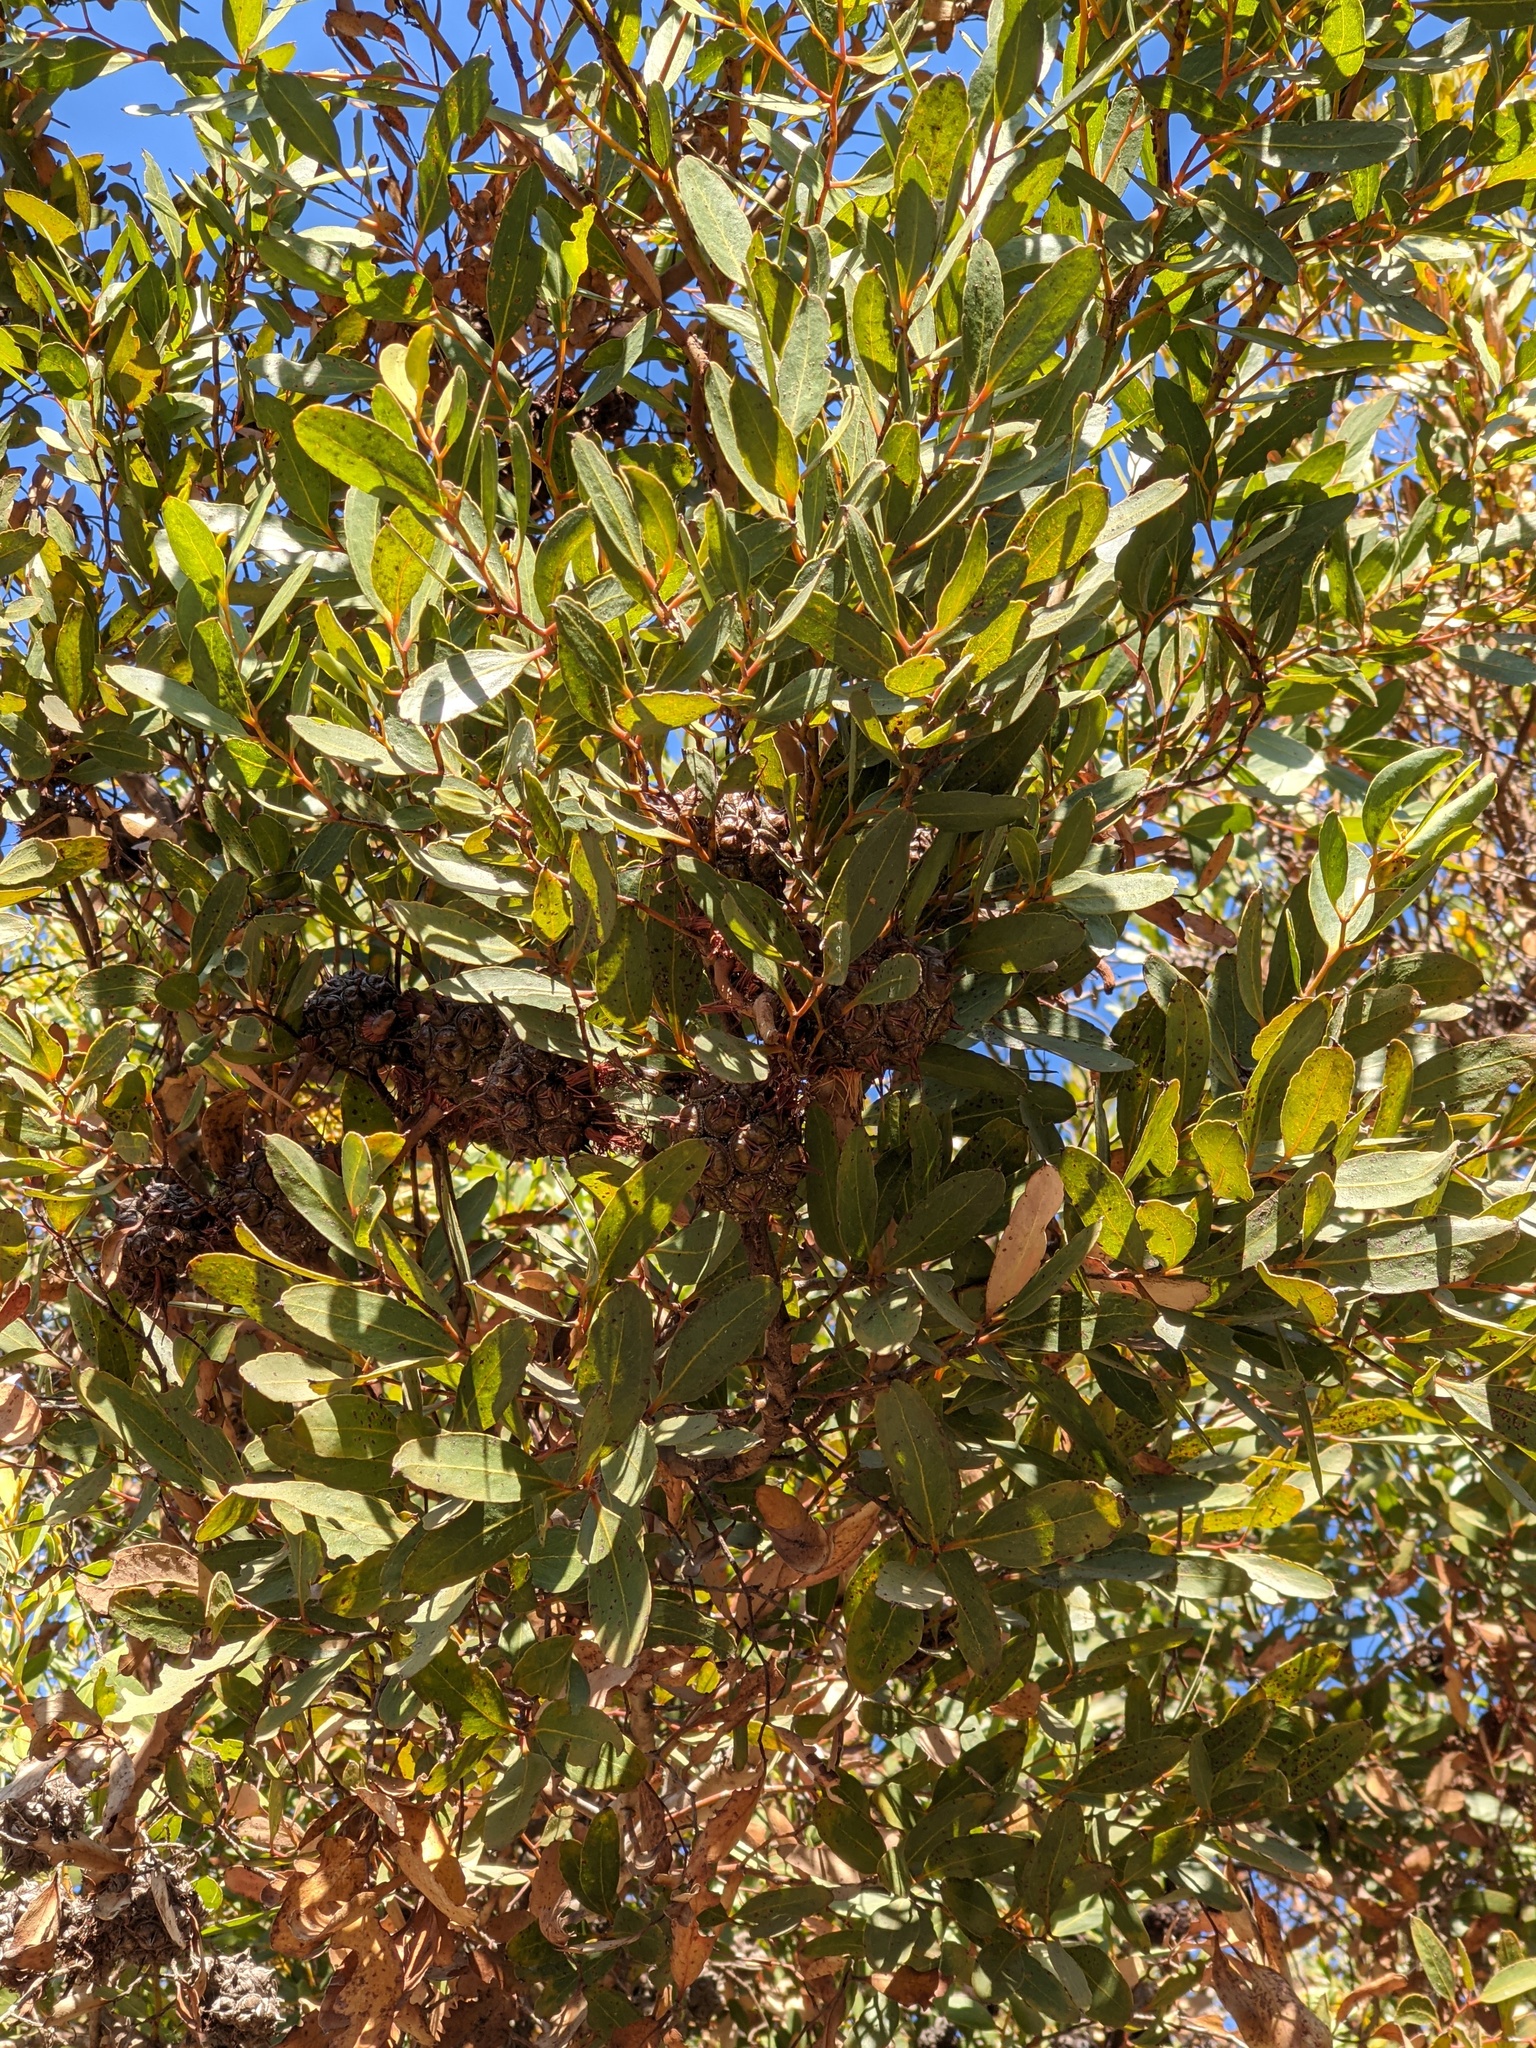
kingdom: Plantae
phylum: Tracheophyta
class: Magnoliopsida
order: Myrtales
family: Myrtaceae
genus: Melaleuca
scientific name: Melaleuca quinquenervia
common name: Punktree
